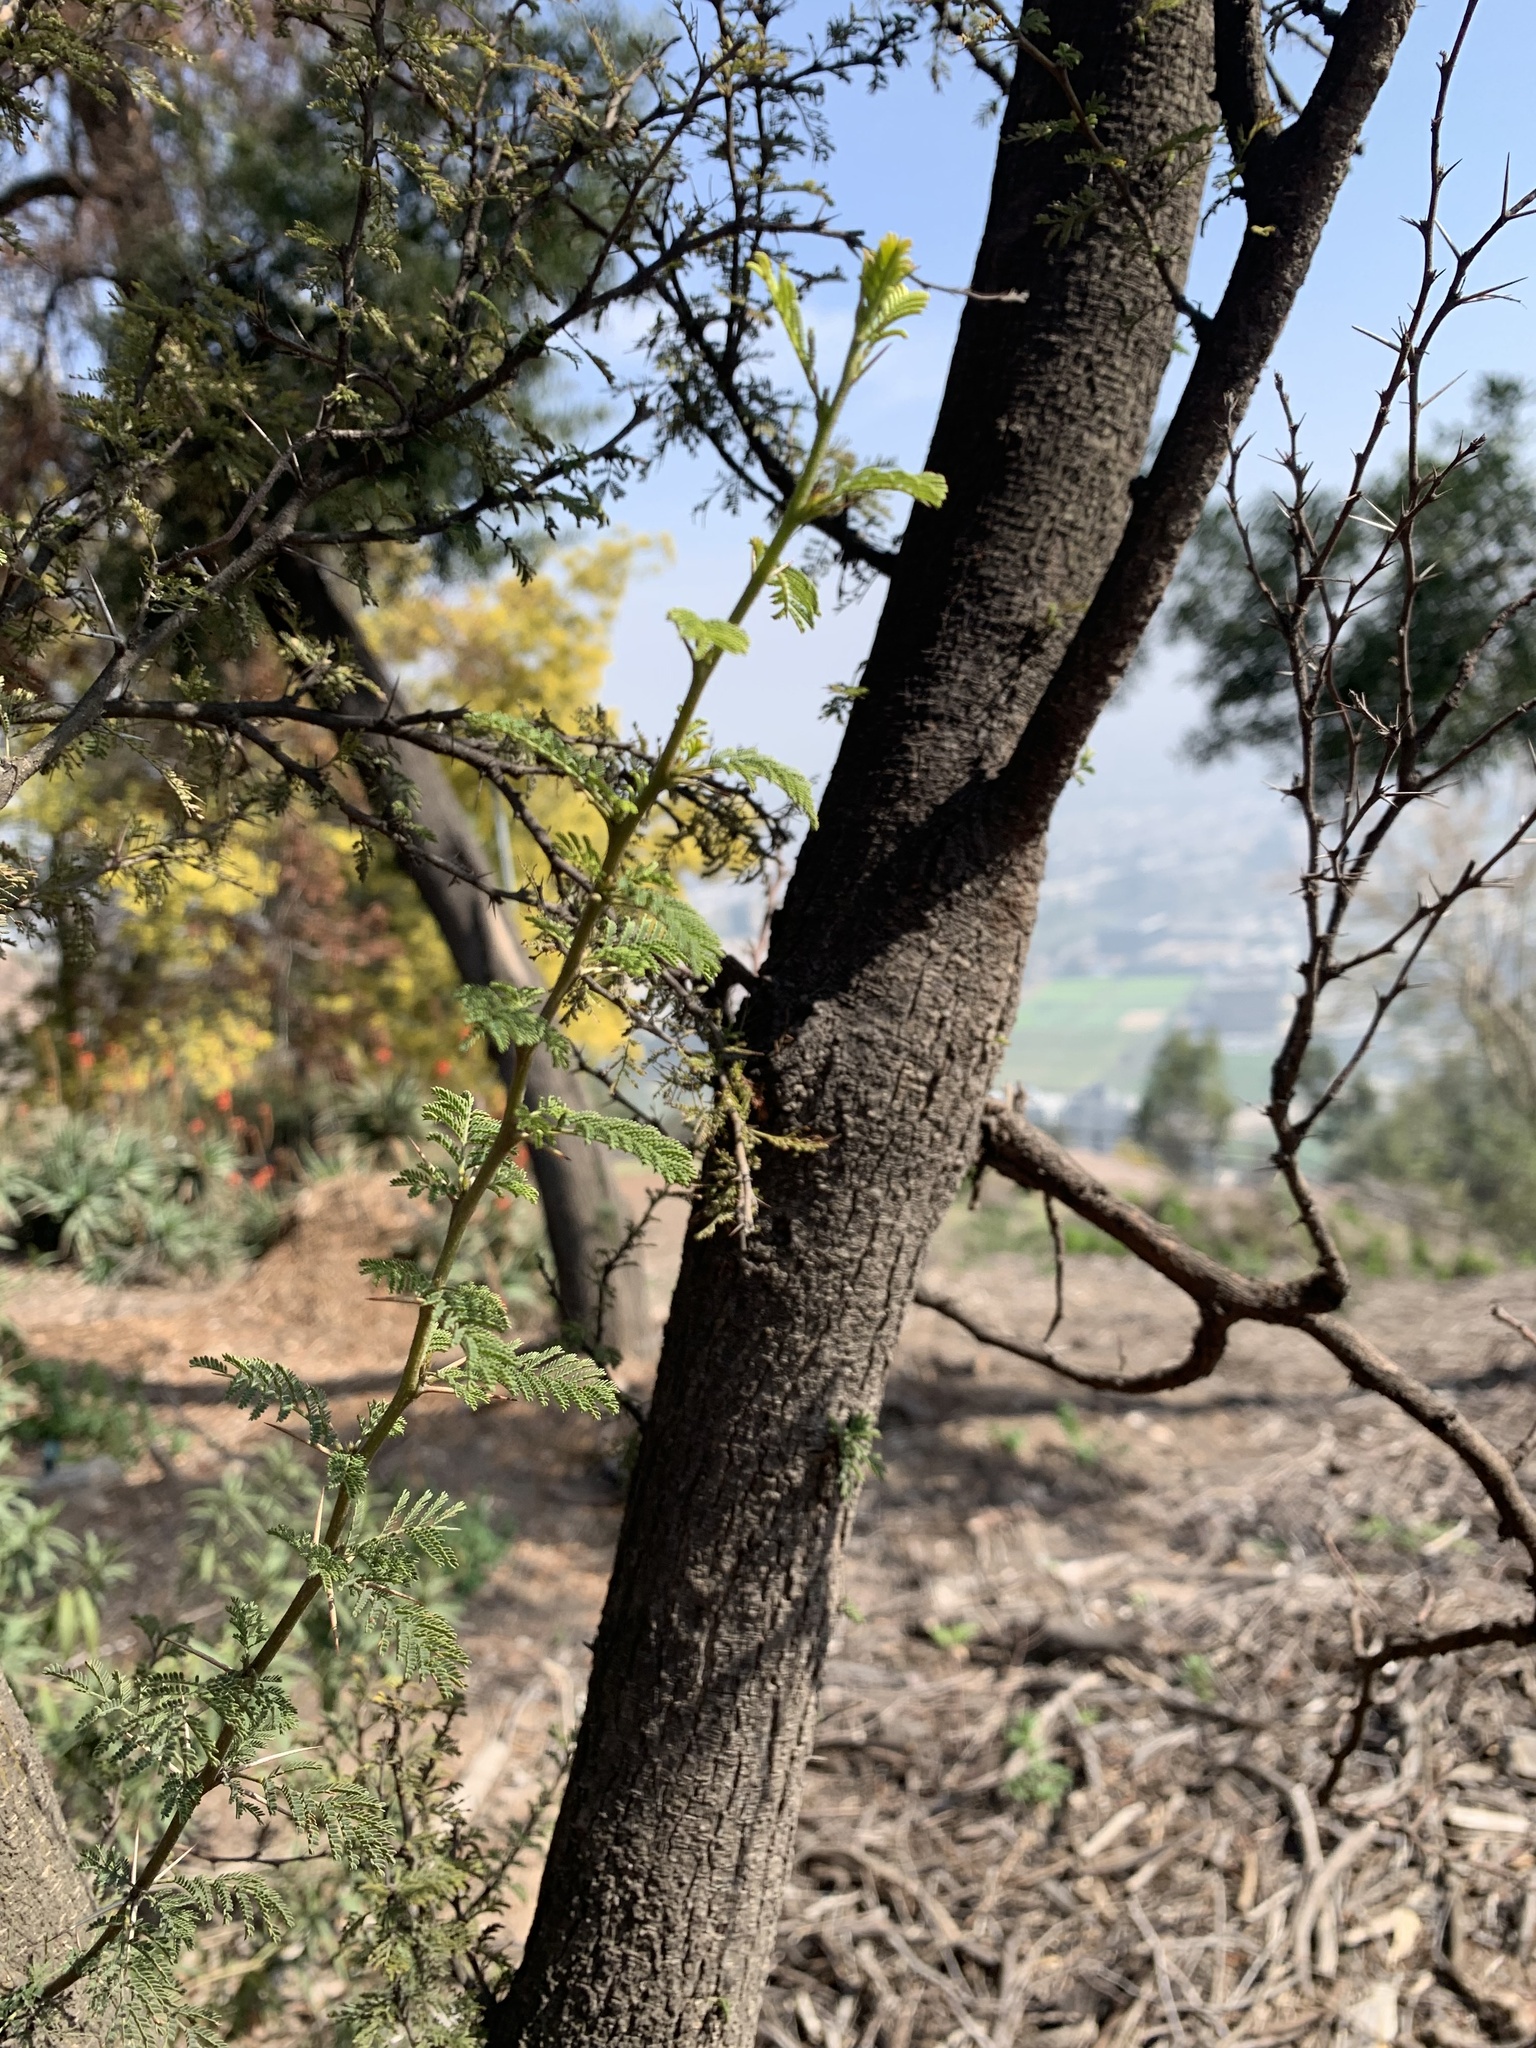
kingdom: Plantae
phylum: Tracheophyta
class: Magnoliopsida
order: Fabales
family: Fabaceae
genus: Vachellia
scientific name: Vachellia caven
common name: Roman cassie
